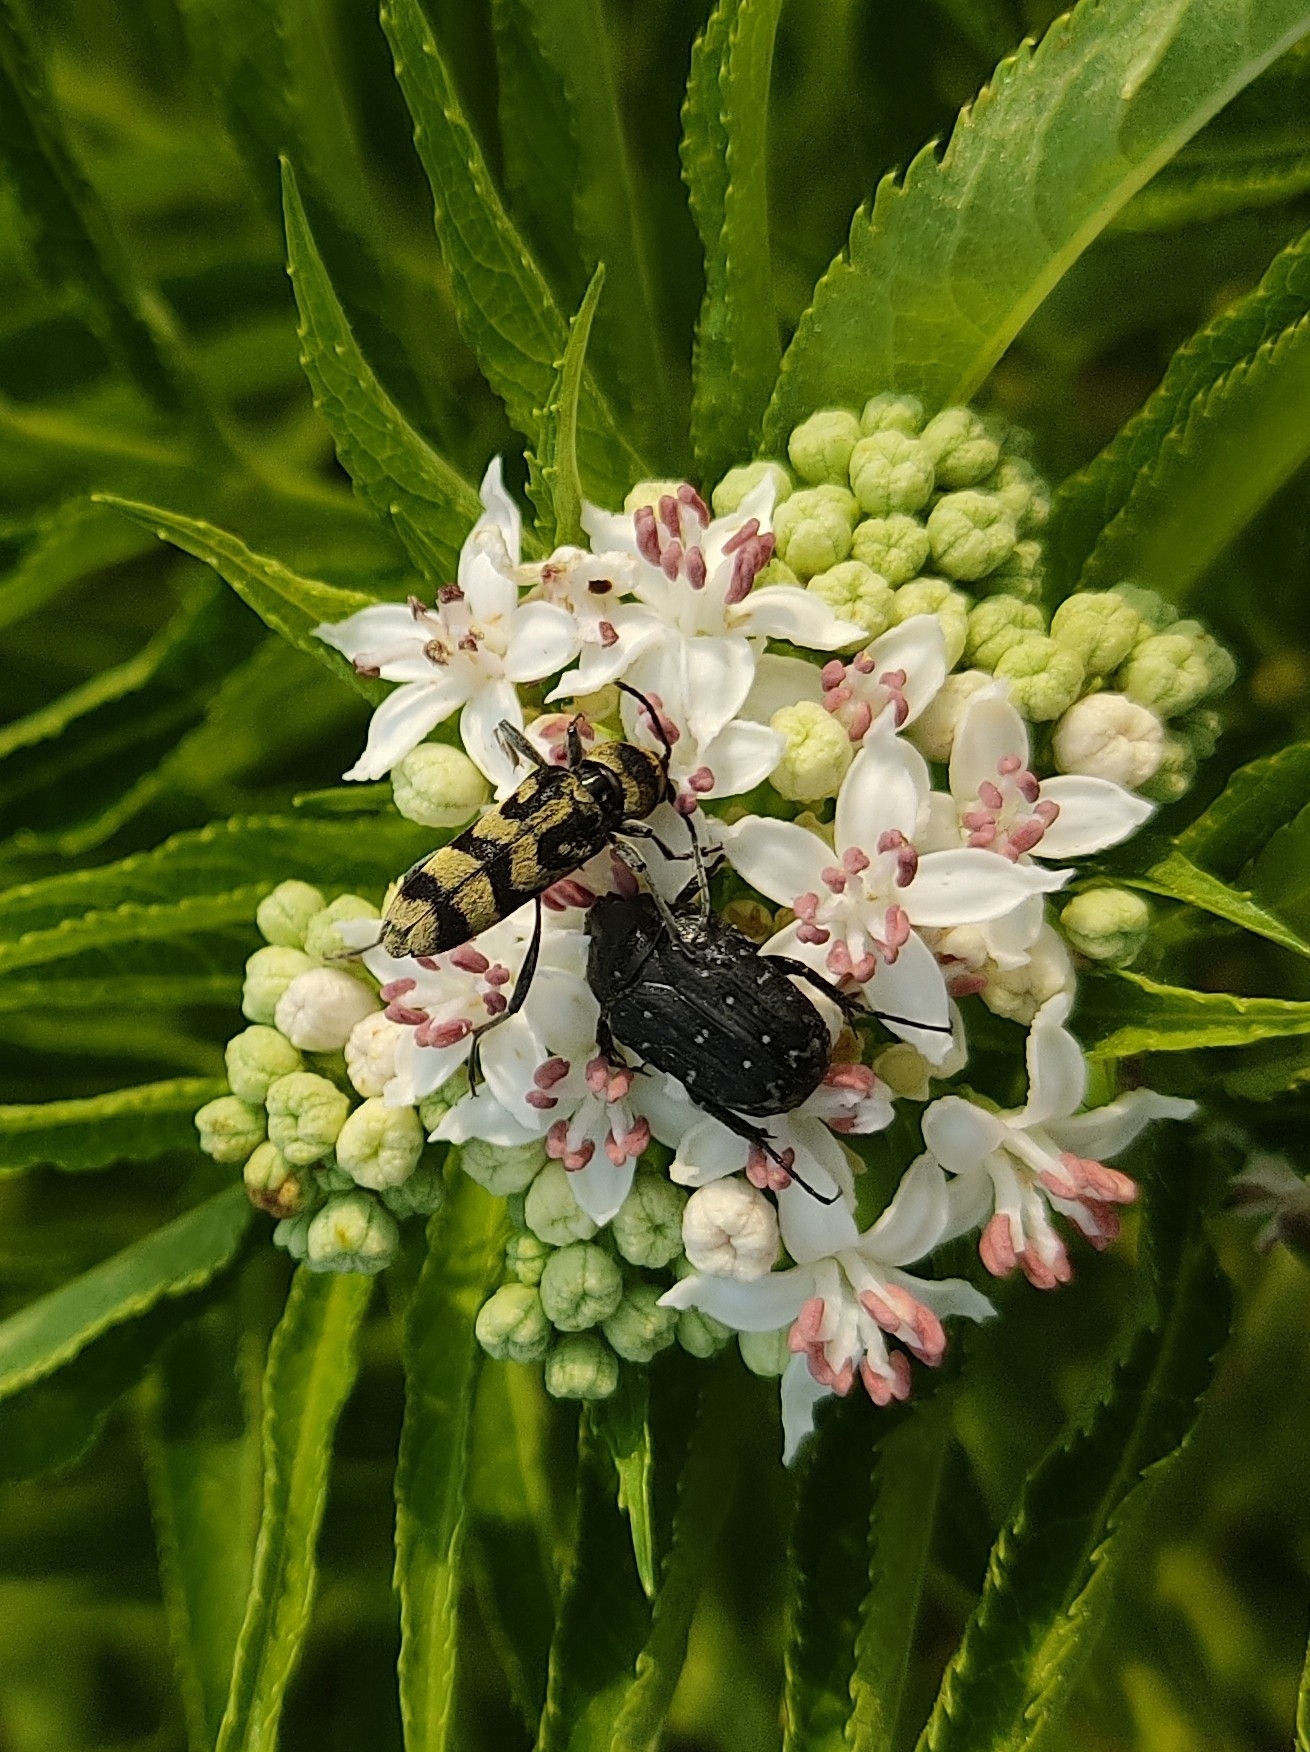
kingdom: Animalia
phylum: Arthropoda
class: Insecta
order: Coleoptera
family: Scarabaeidae
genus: Oxythyrea
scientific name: Oxythyrea funesta
